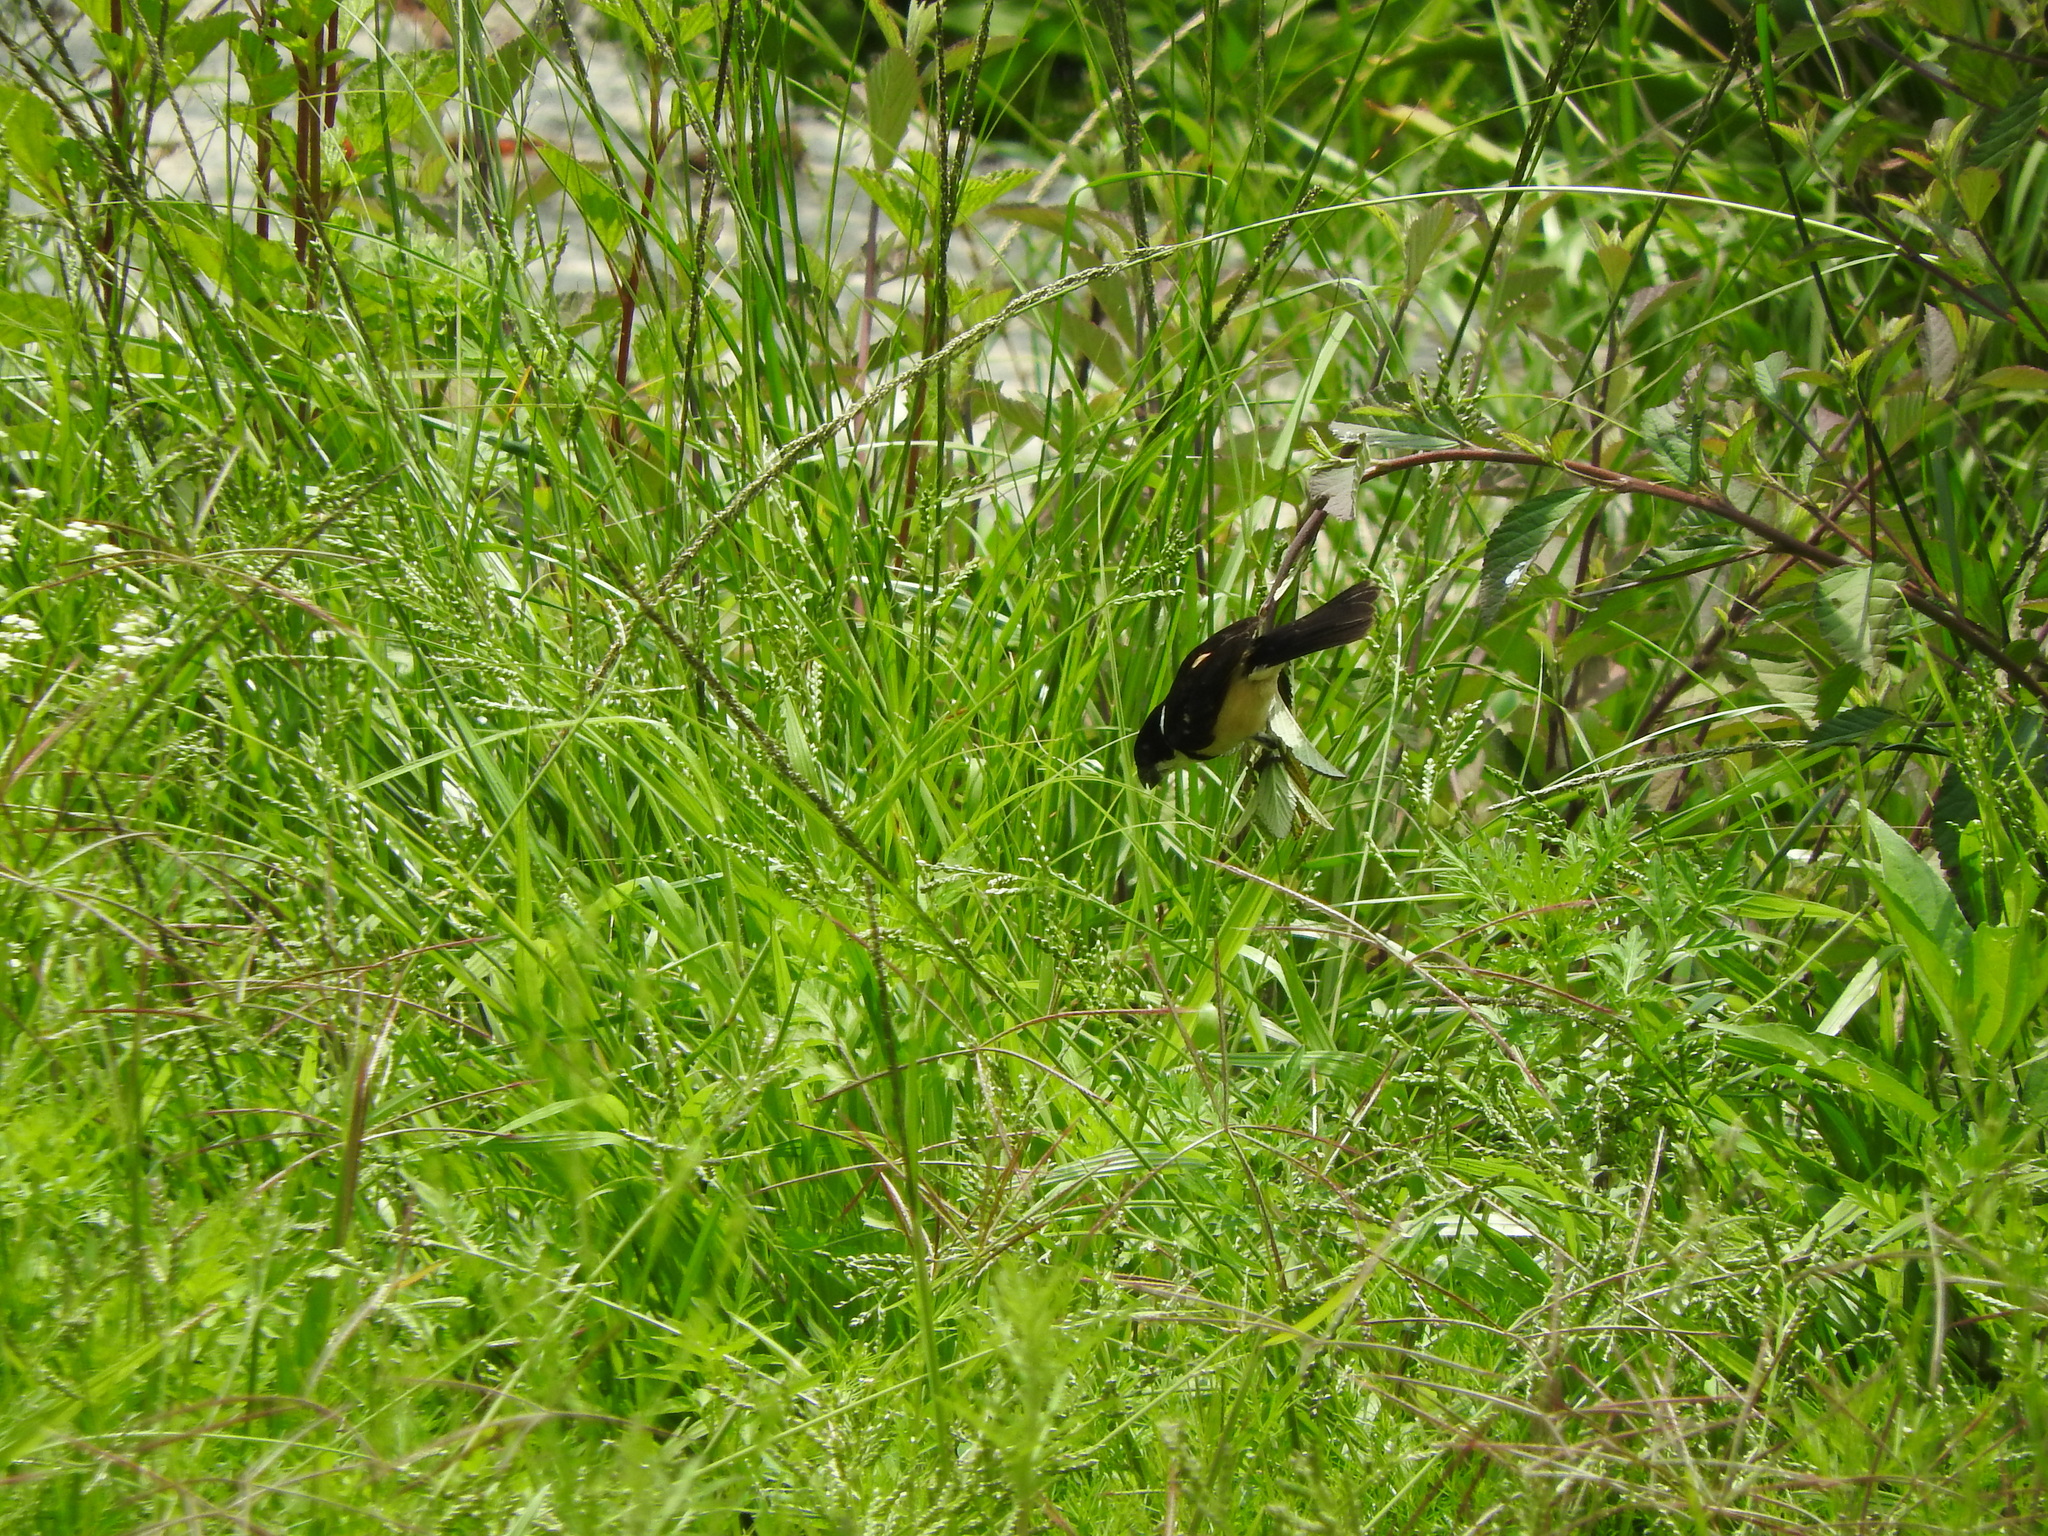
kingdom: Animalia
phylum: Chordata
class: Aves
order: Passeriformes
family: Thraupidae
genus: Sporophila
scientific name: Sporophila torqueola
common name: White-collared seedeater
